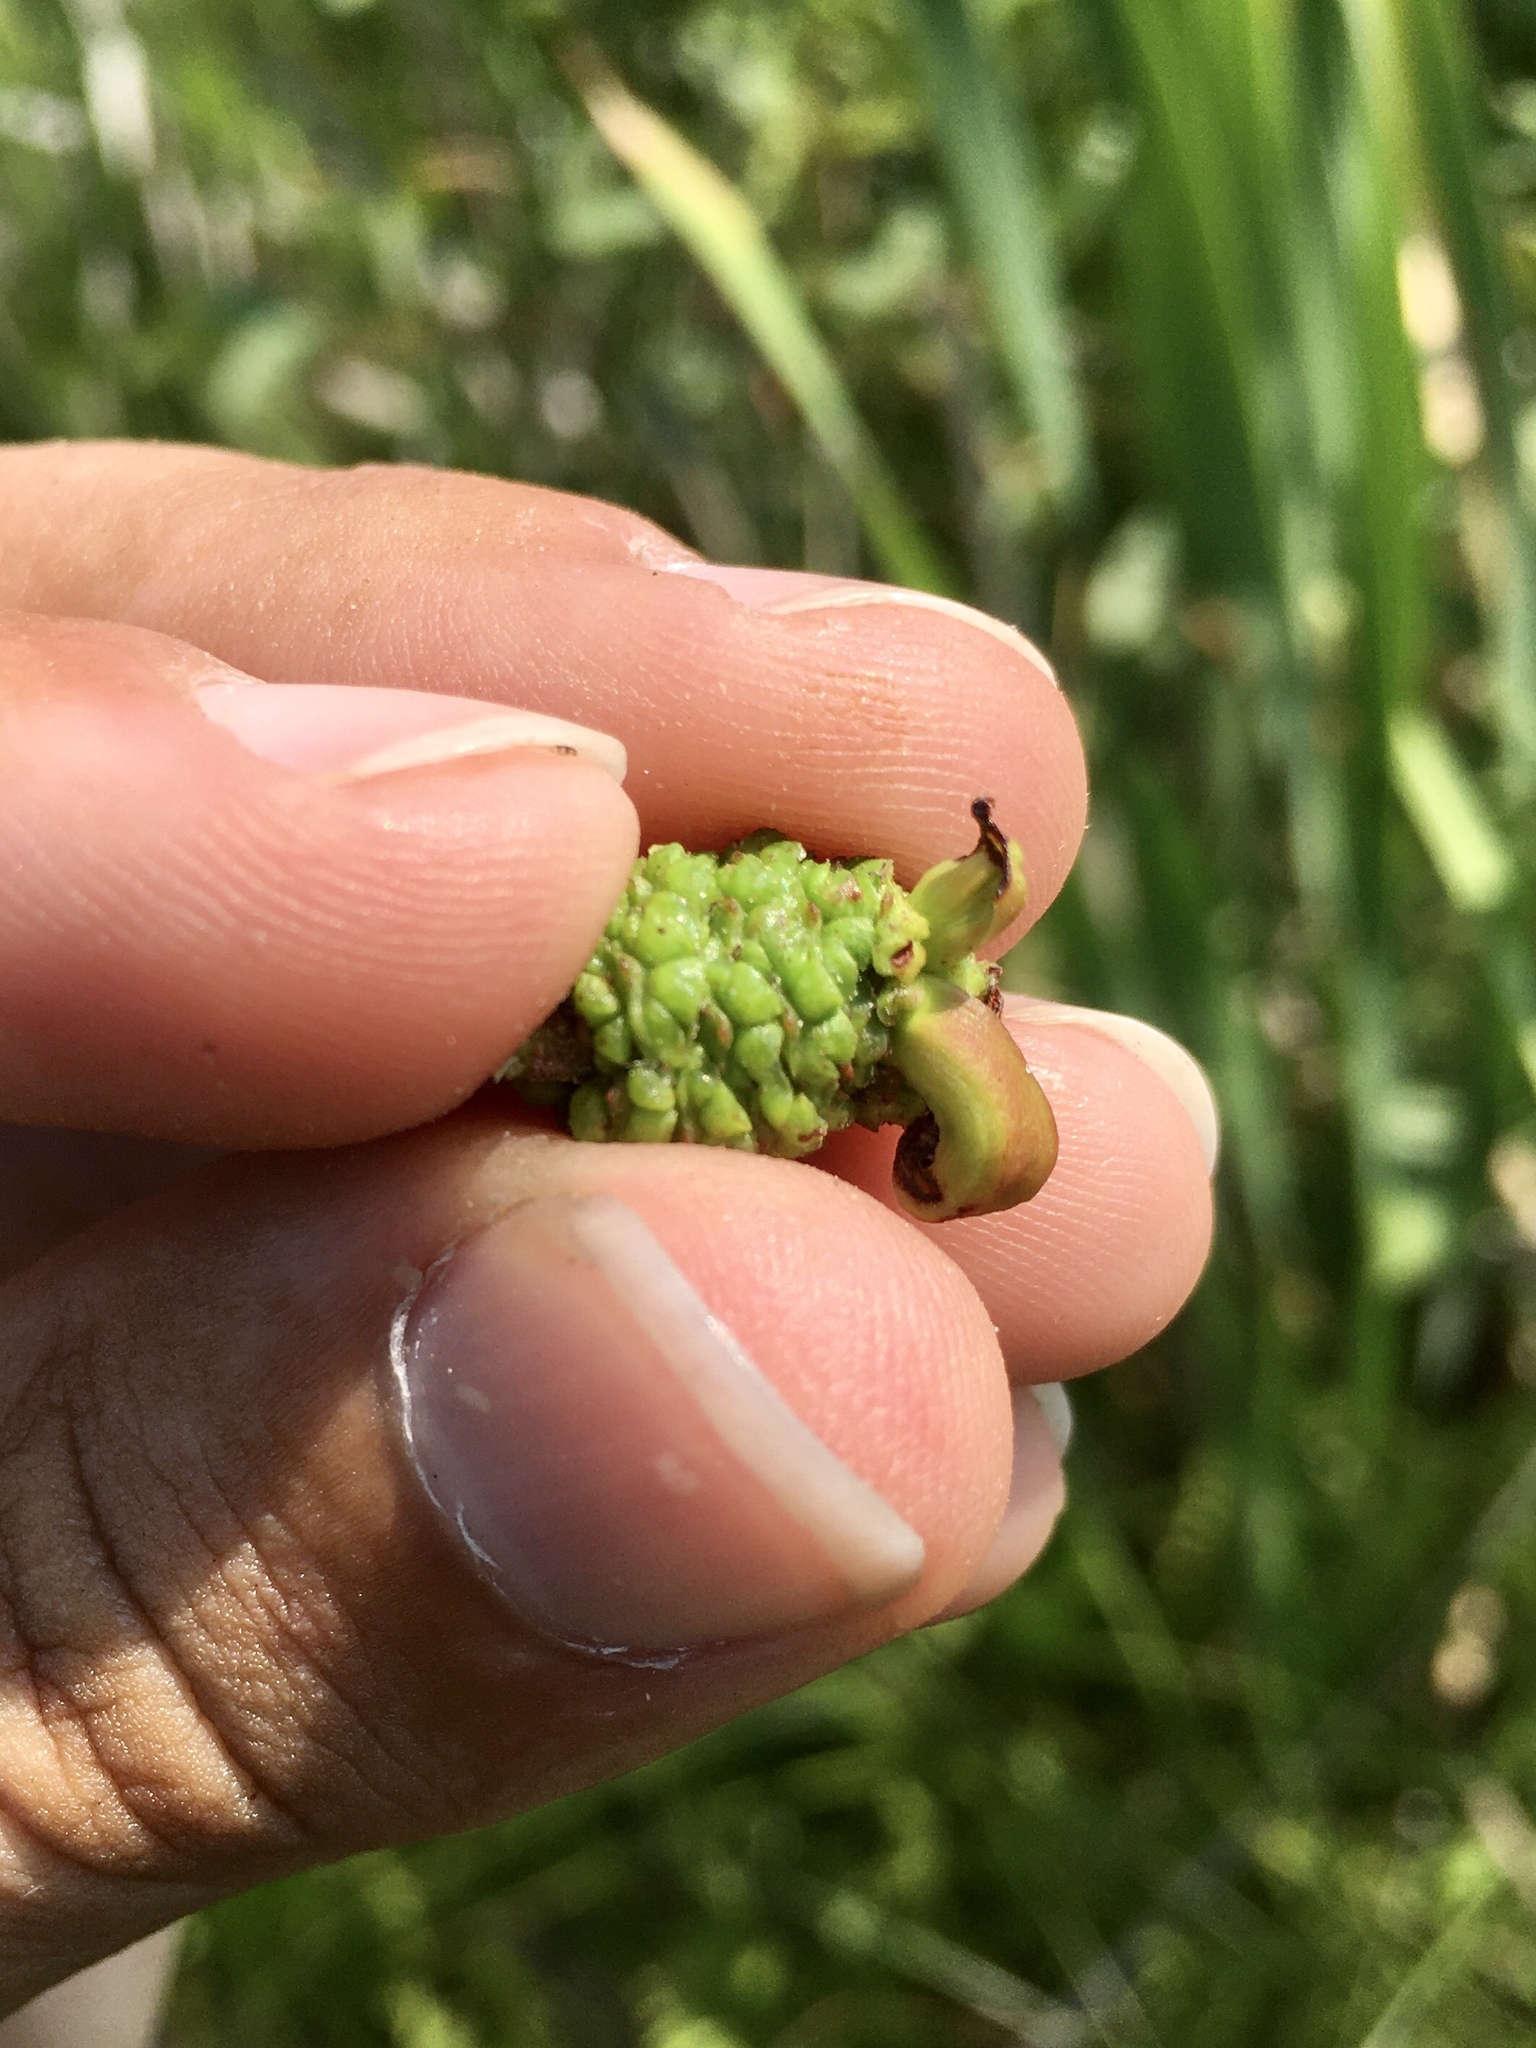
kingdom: Fungi
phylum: Ascomycota
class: Taphrinomycetes
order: Taphrinales
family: Taphrinaceae
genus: Taphrina
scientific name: Taphrina robinsoniana
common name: Eastern american alder tongue gall fungus
